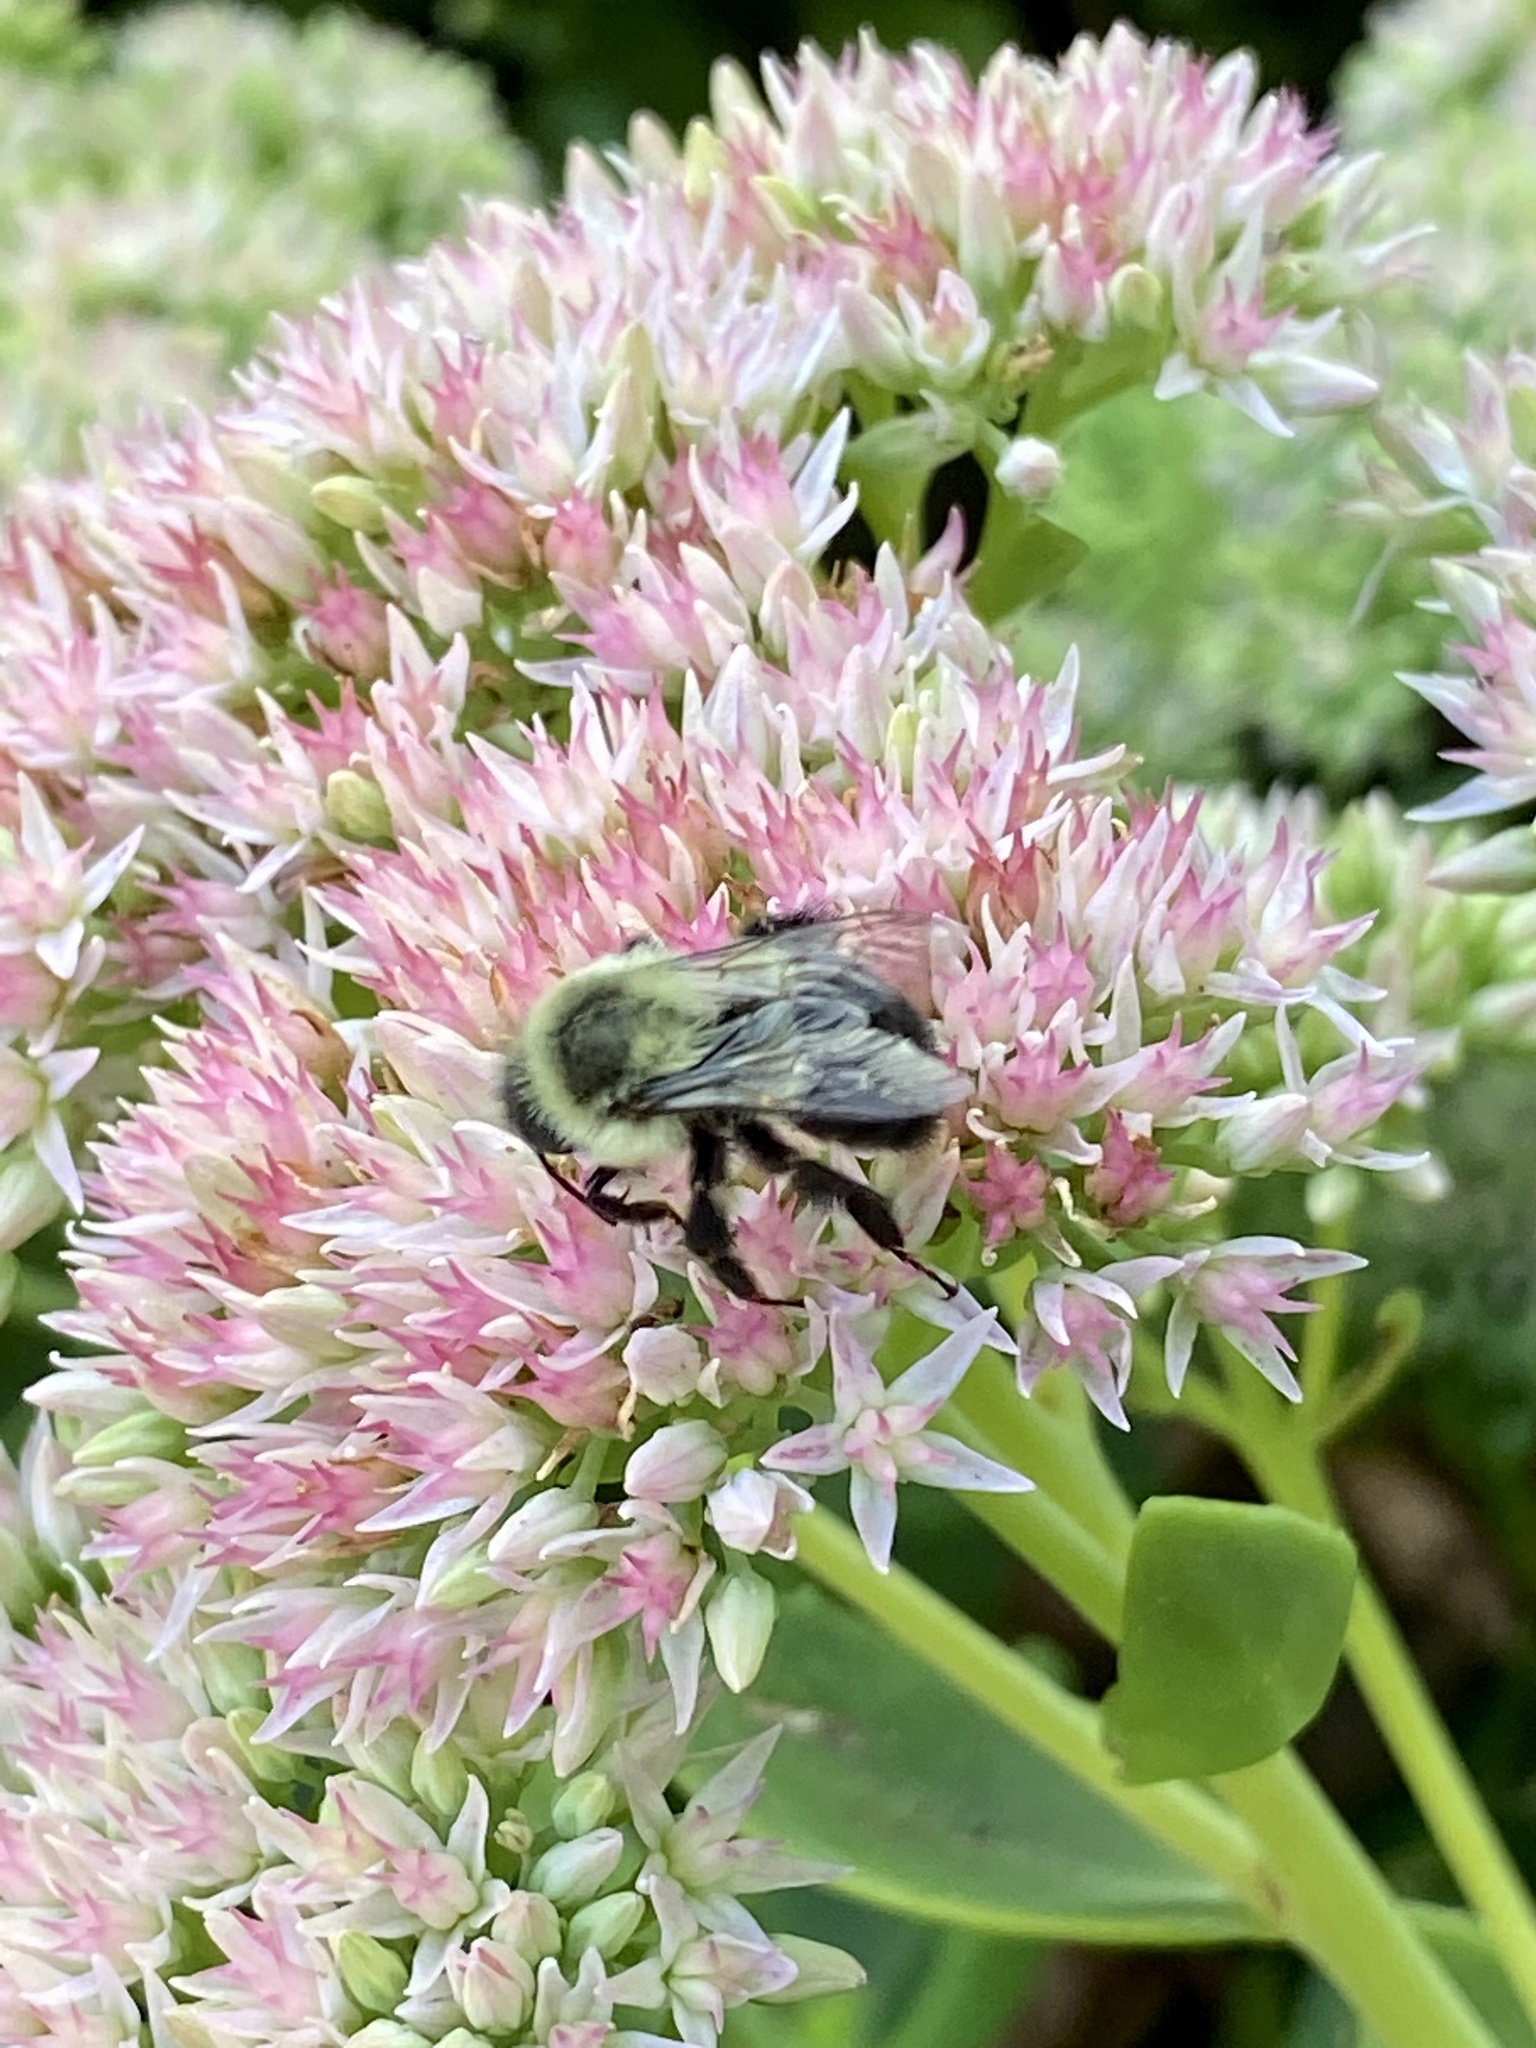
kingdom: Animalia
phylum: Arthropoda
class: Insecta
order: Hymenoptera
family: Apidae
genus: Bombus
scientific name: Bombus impatiens
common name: Common eastern bumble bee
